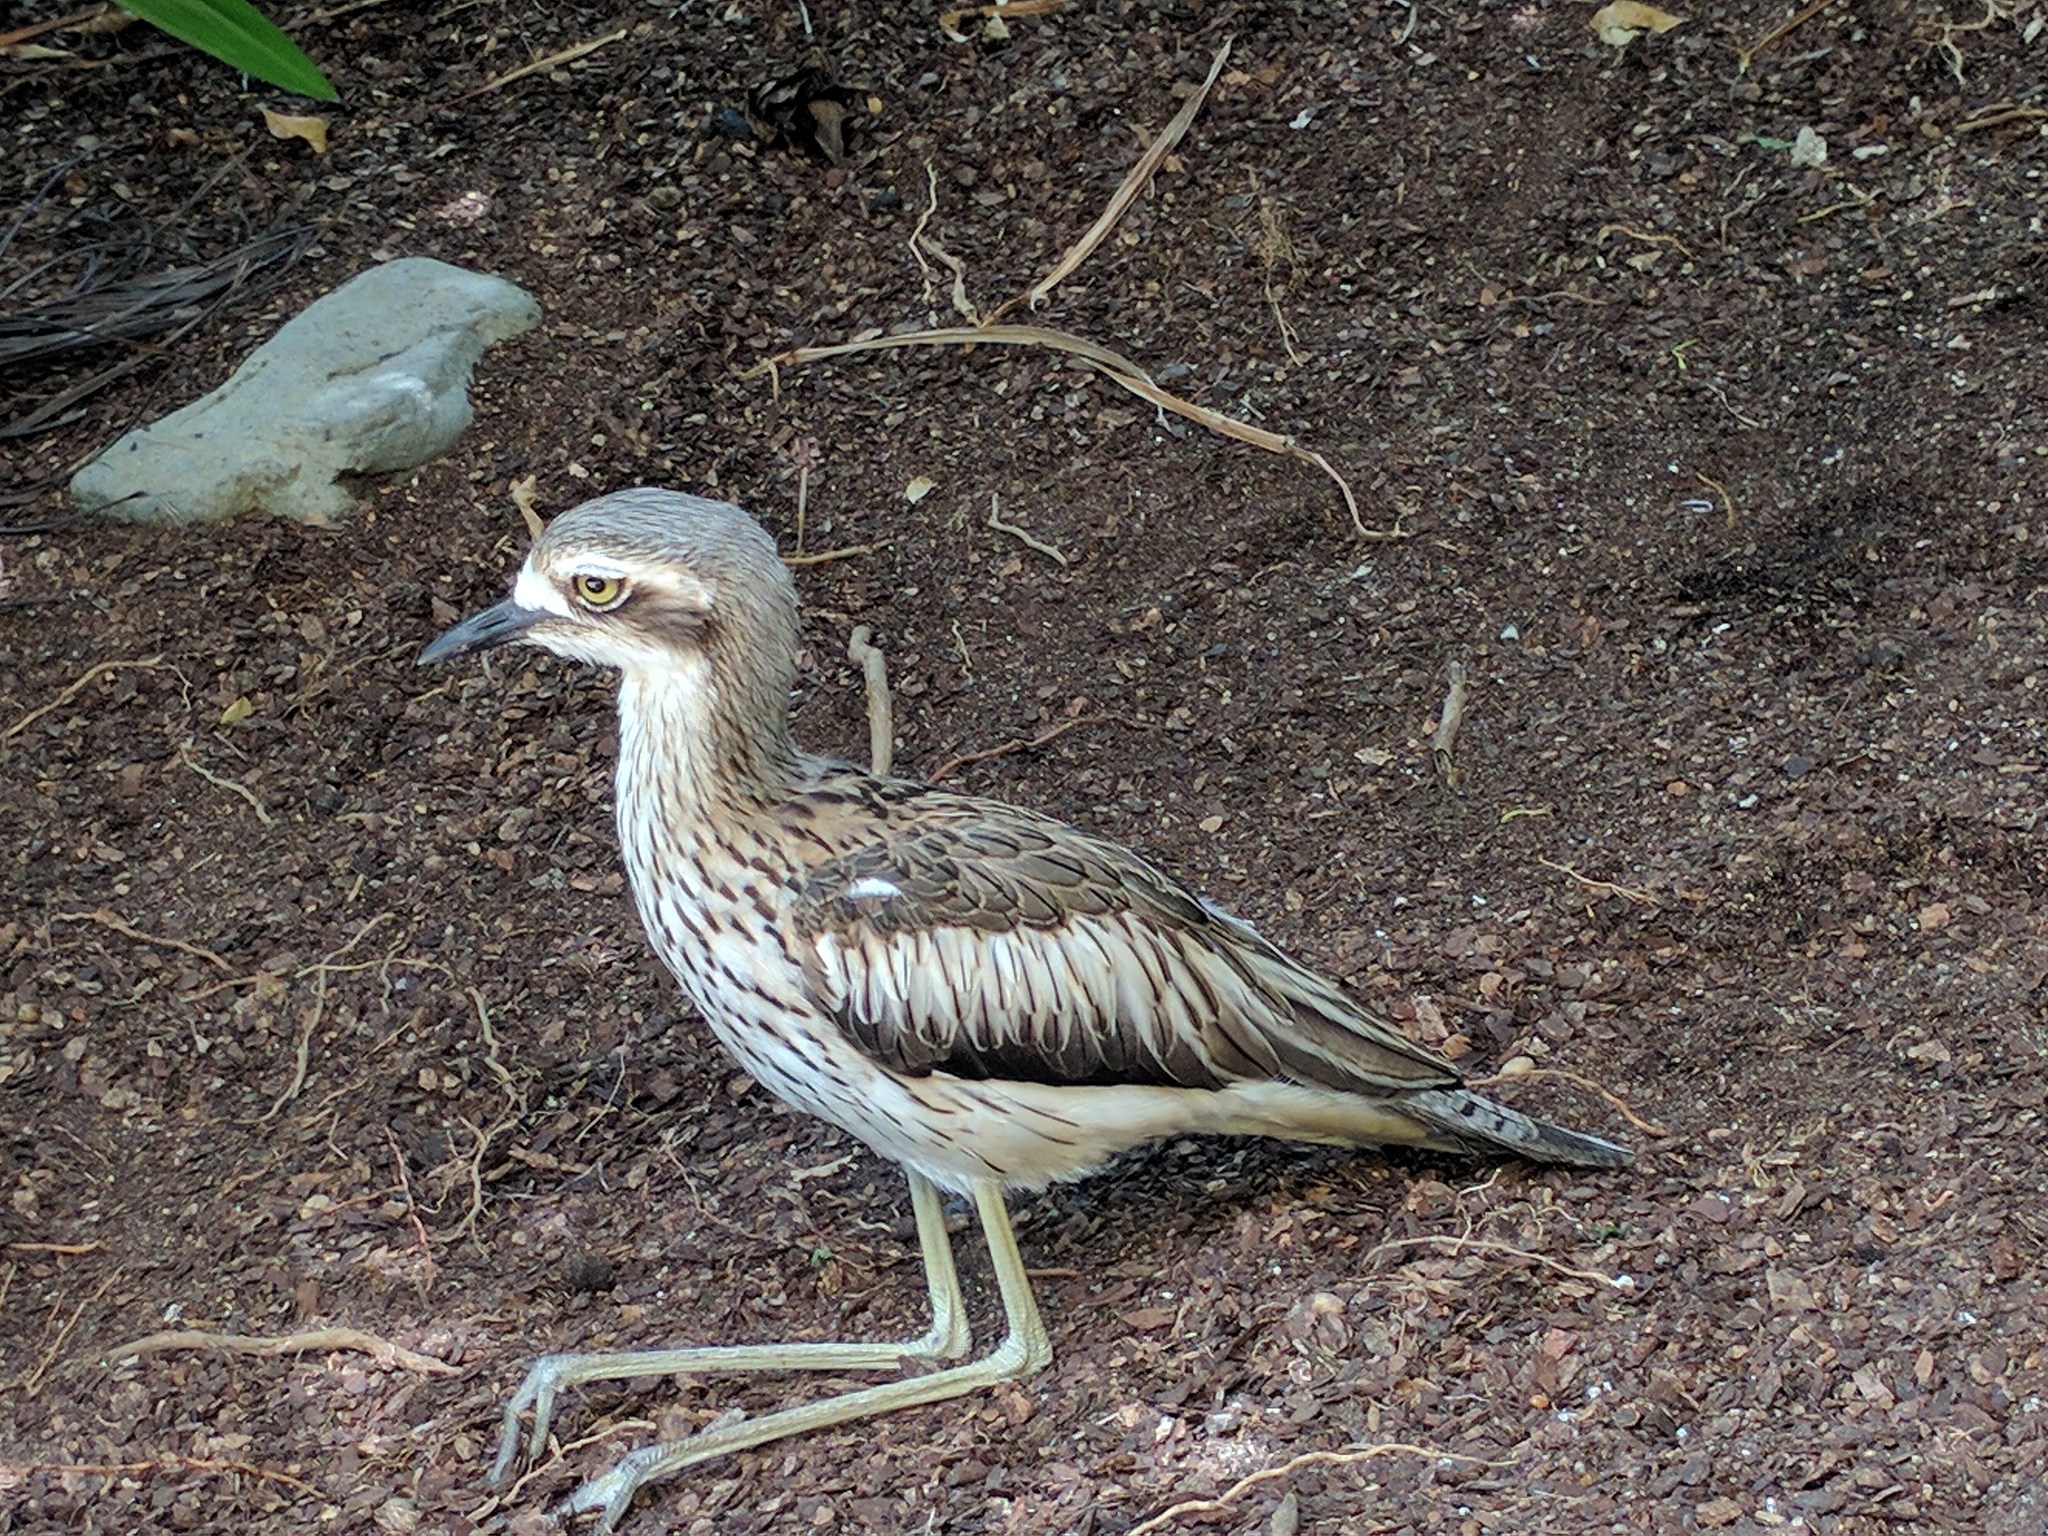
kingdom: Animalia
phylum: Chordata
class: Aves
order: Charadriiformes
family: Burhinidae
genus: Burhinus
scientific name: Burhinus grallarius
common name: Bush stone-curlew
